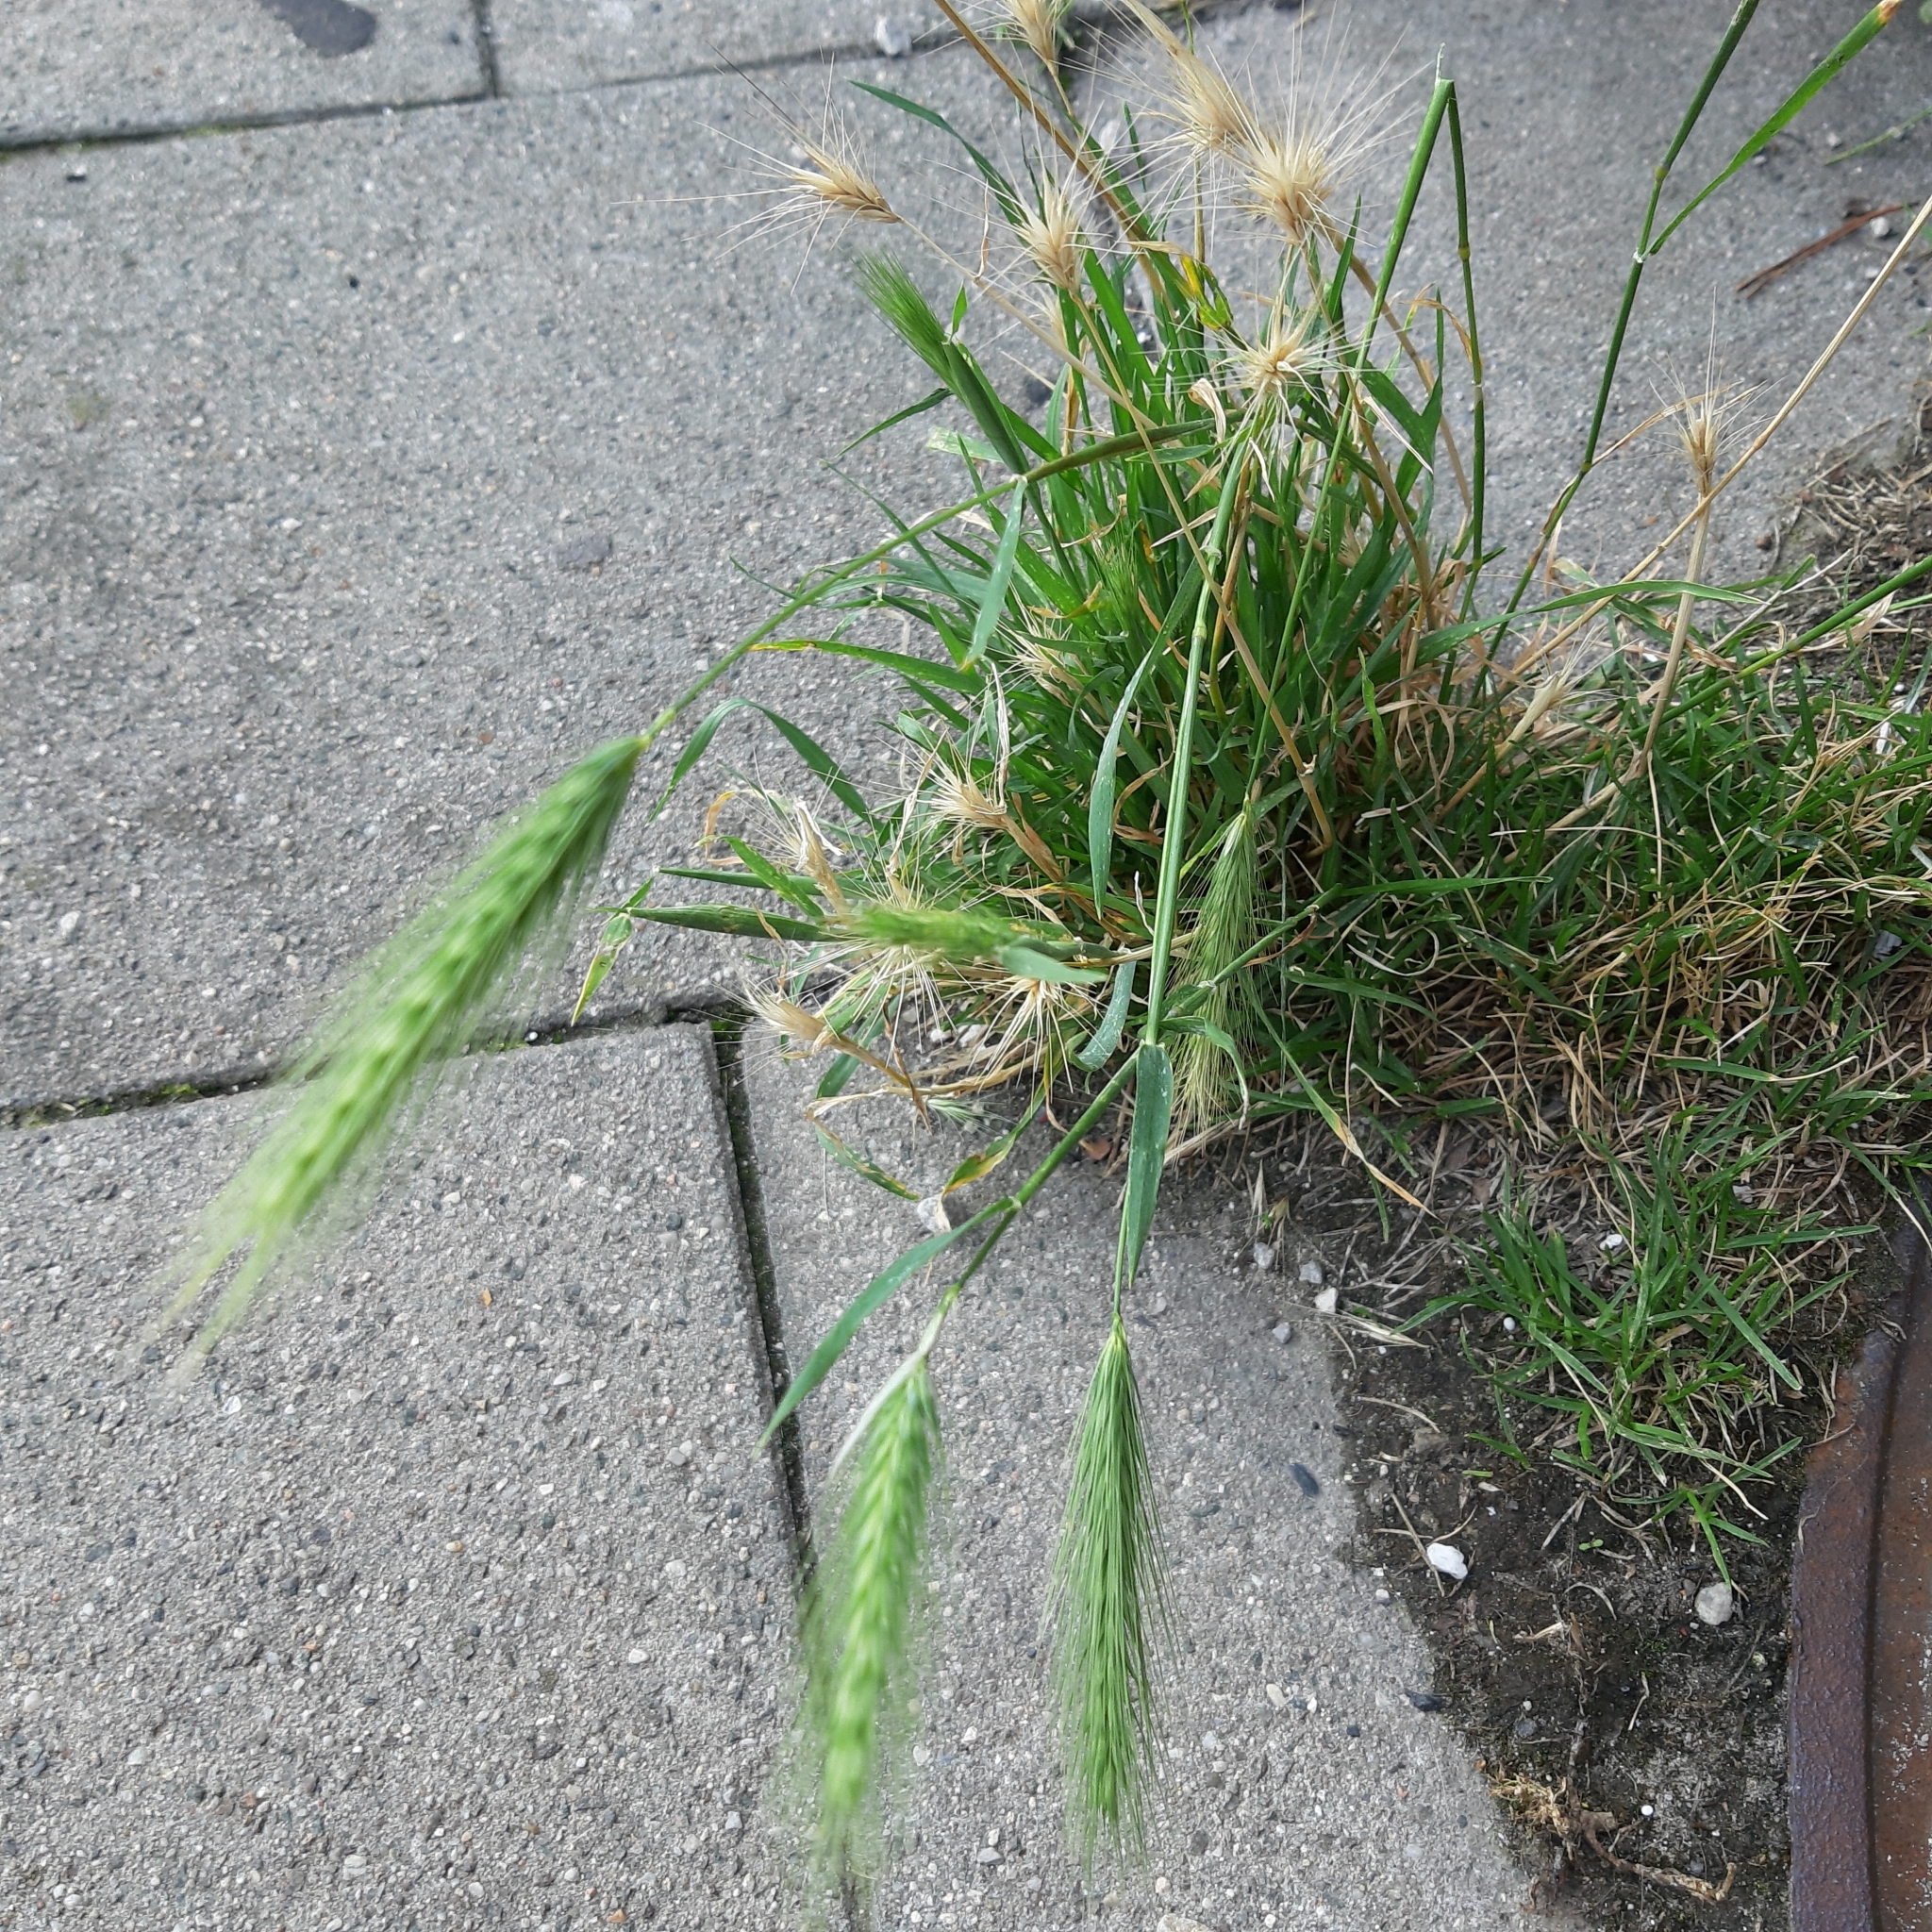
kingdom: Plantae
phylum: Tracheophyta
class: Liliopsida
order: Poales
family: Poaceae
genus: Hordeum
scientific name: Hordeum murinum
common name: Wall barley
